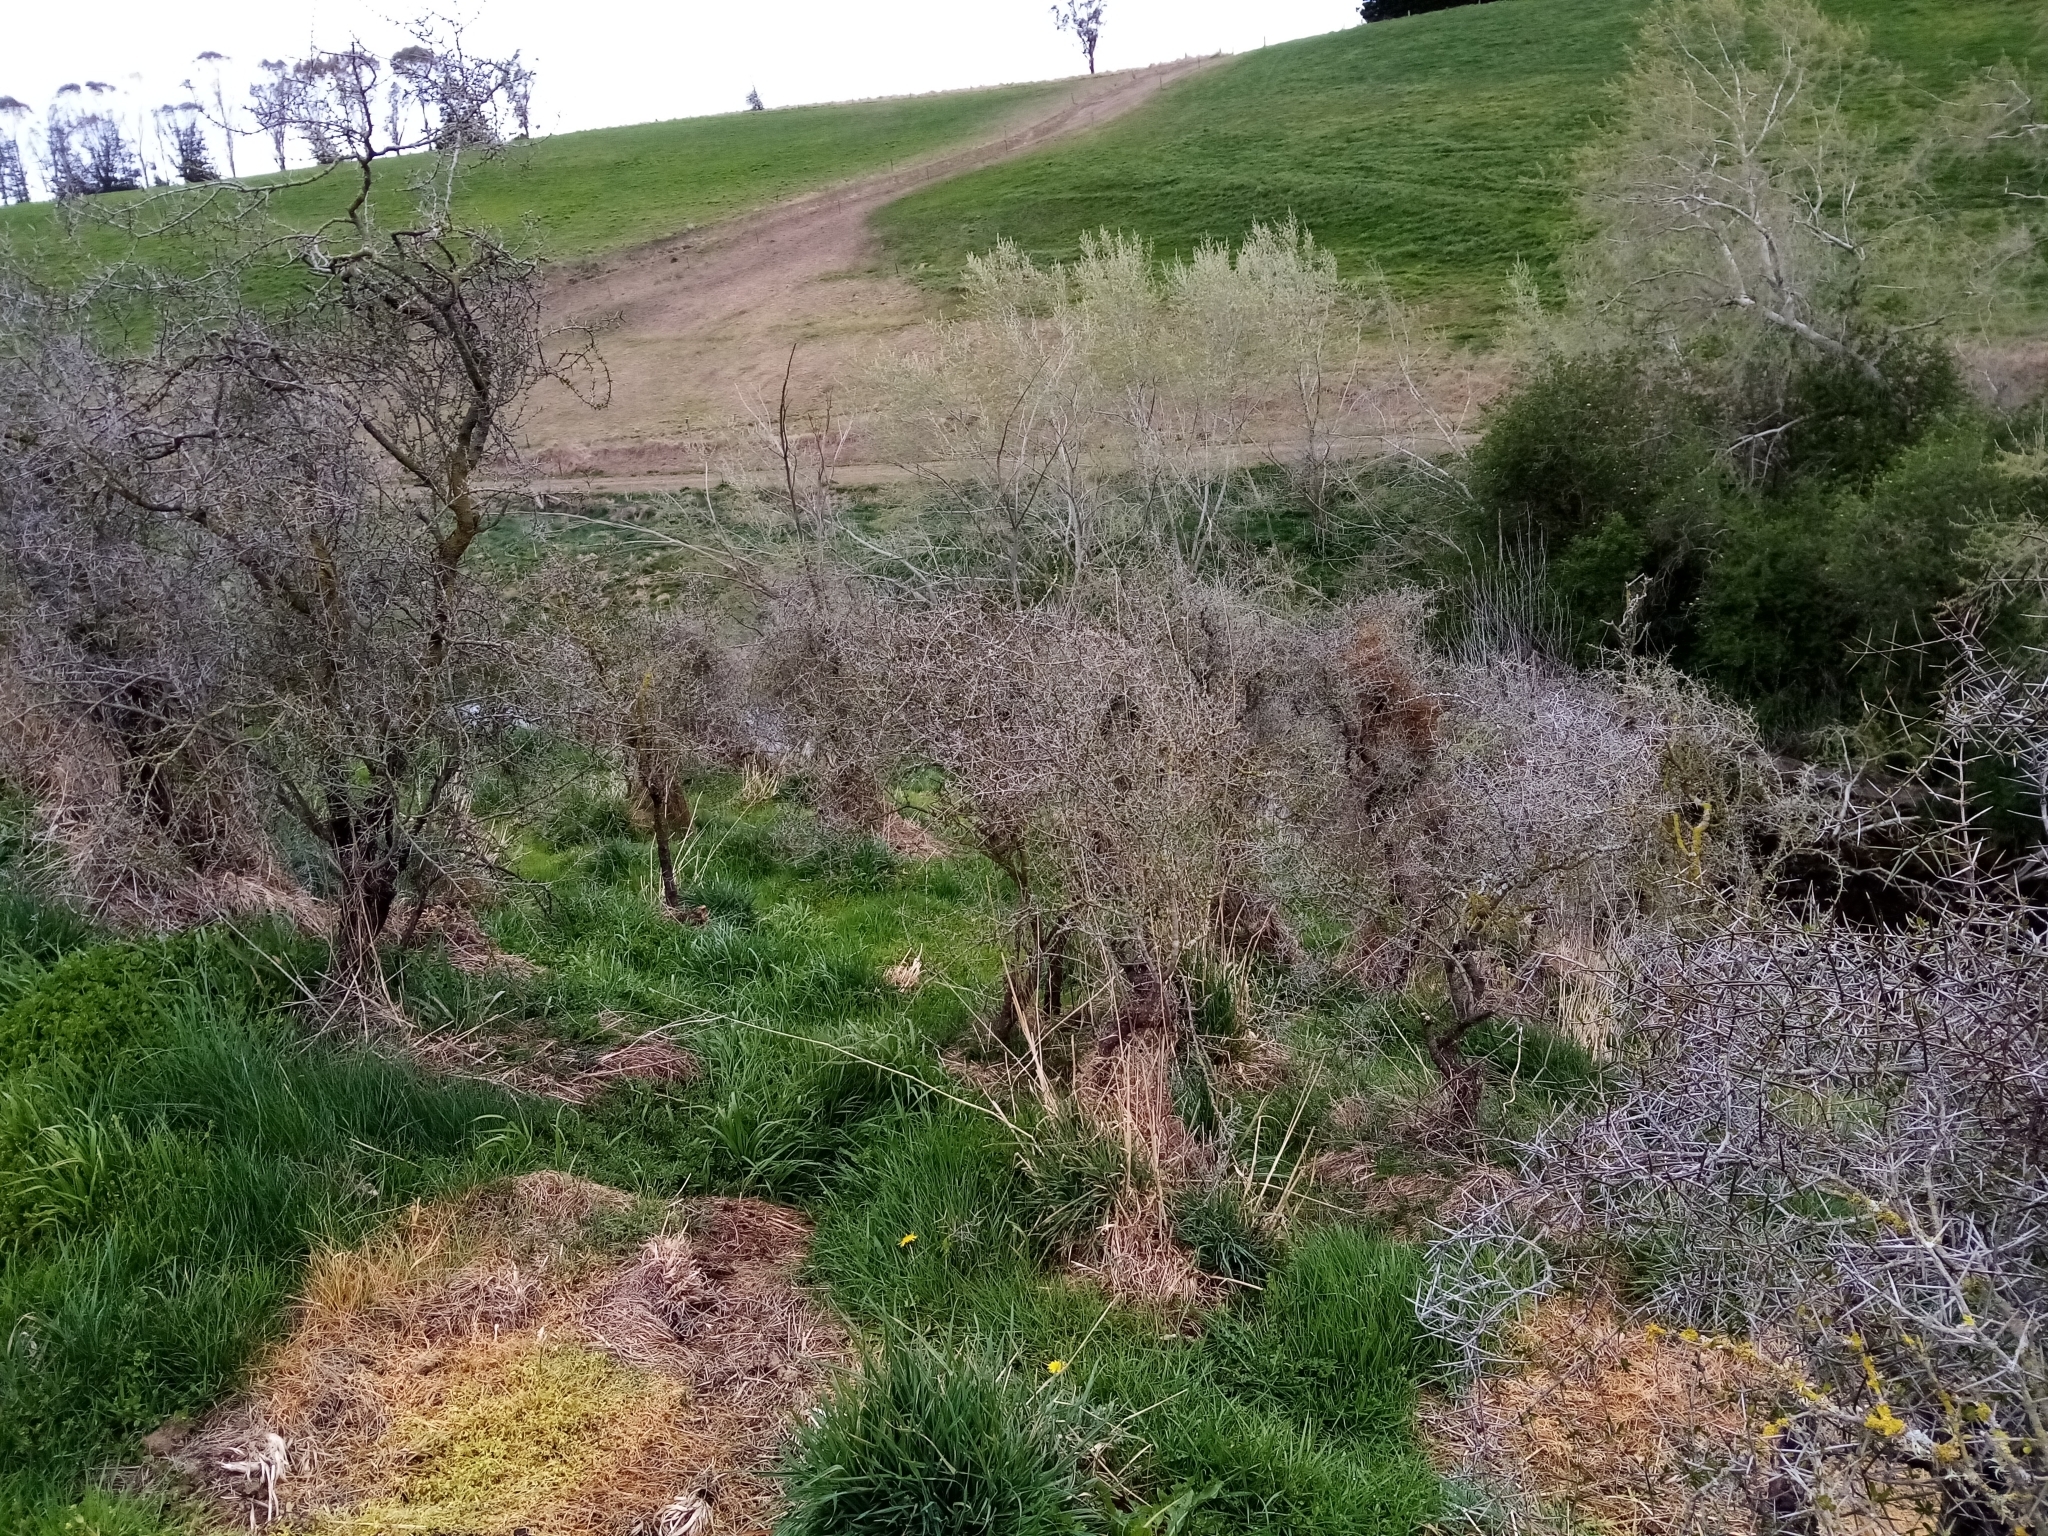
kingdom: Plantae
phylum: Tracheophyta
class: Magnoliopsida
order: Rosales
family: Rhamnaceae
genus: Discaria
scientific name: Discaria toumatou
